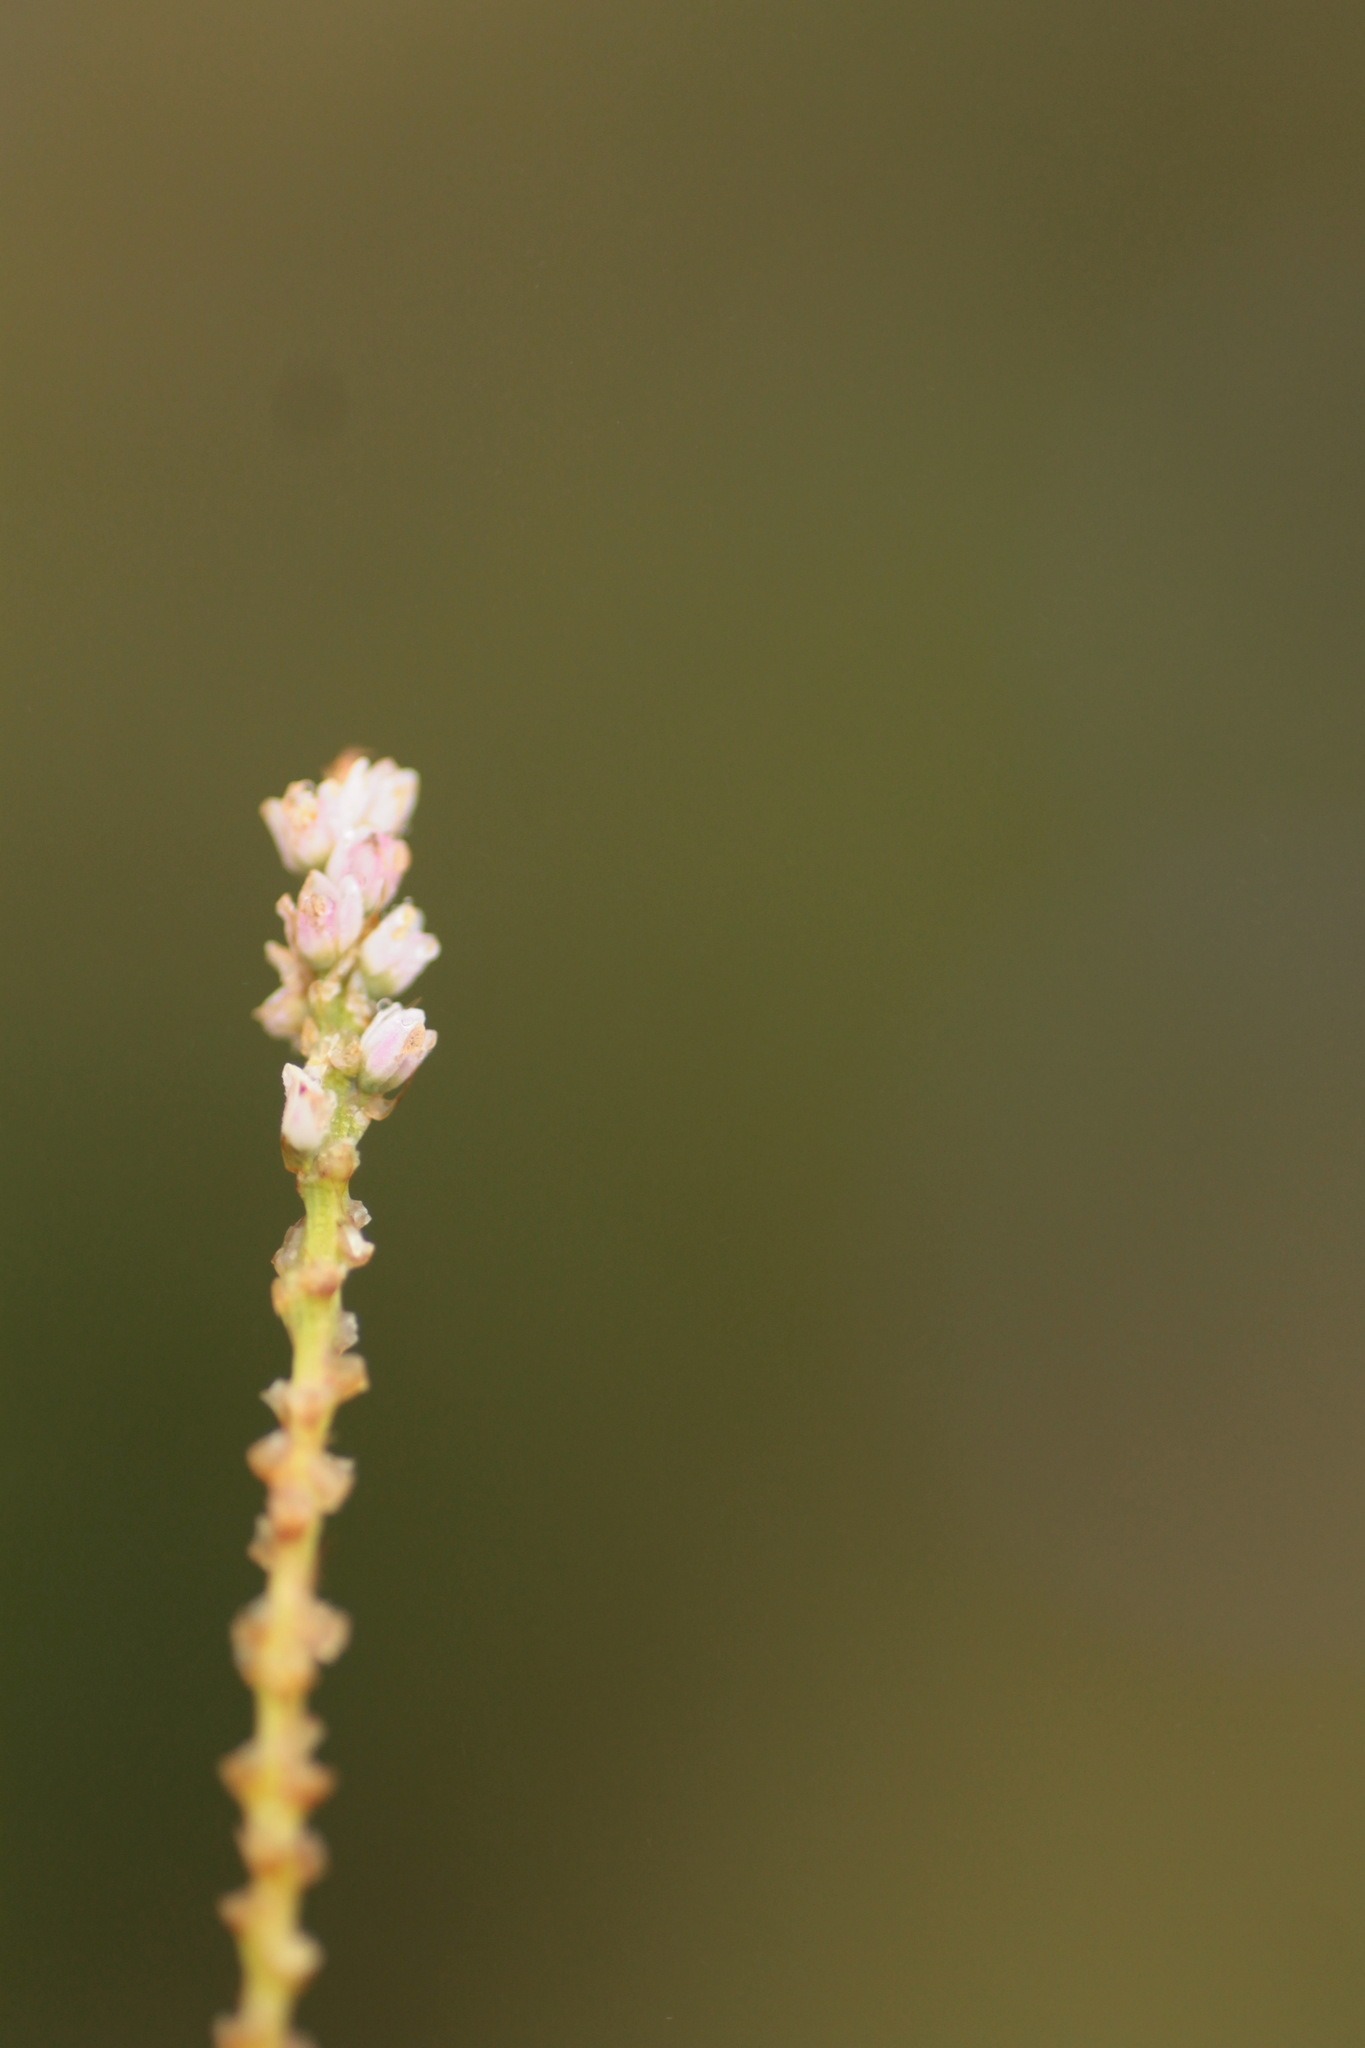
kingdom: Plantae
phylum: Tracheophyta
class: Magnoliopsida
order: Caryophyllales
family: Polygonaceae
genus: Bistorta
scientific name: Bistorta vivipara
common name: Alpine bistort
